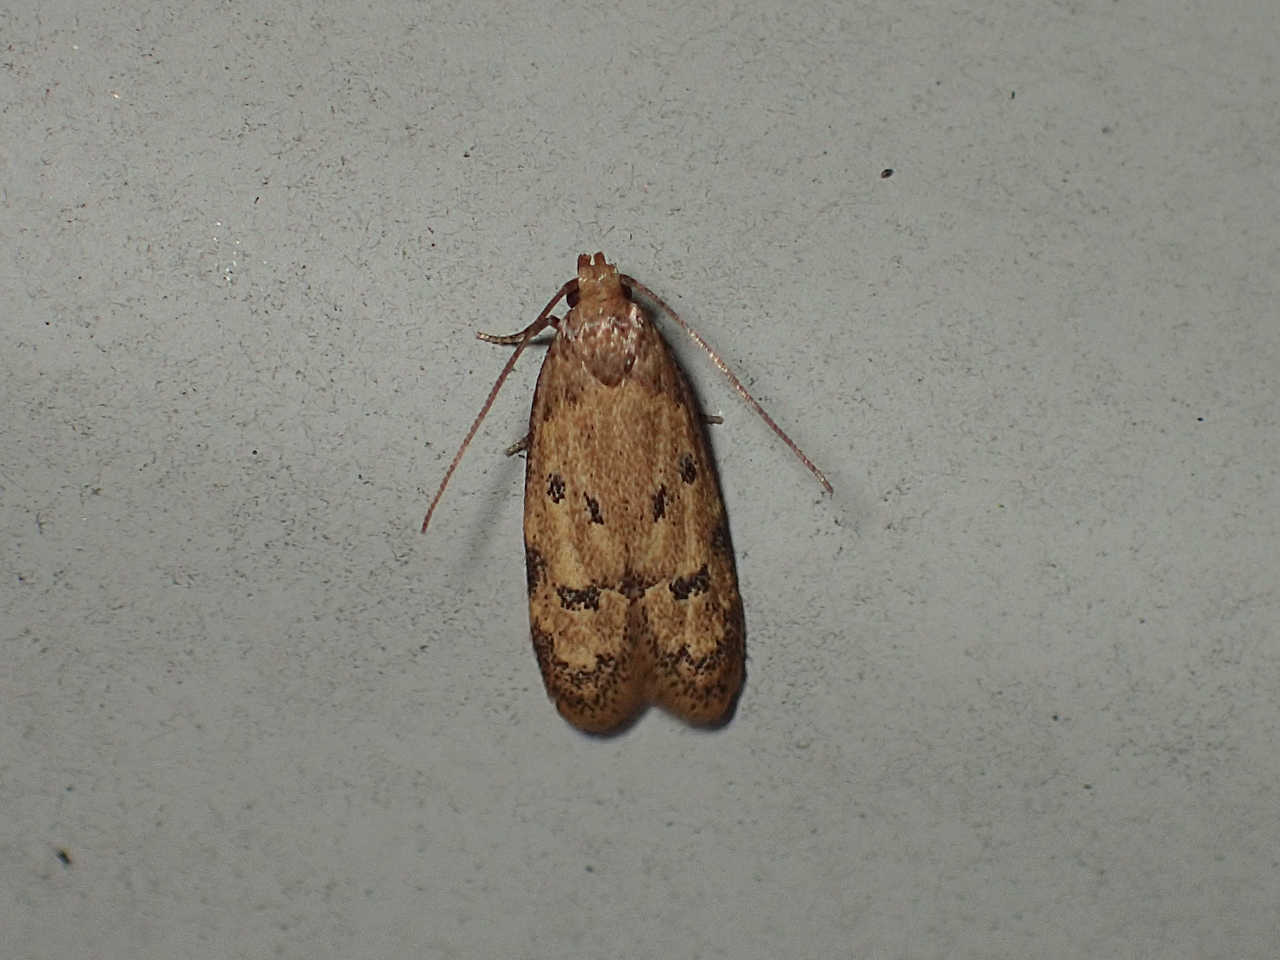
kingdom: Animalia
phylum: Arthropoda
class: Insecta
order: Lepidoptera
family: Autostichidae
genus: Gerdana
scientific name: Gerdana caritella
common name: Gerdana moth
